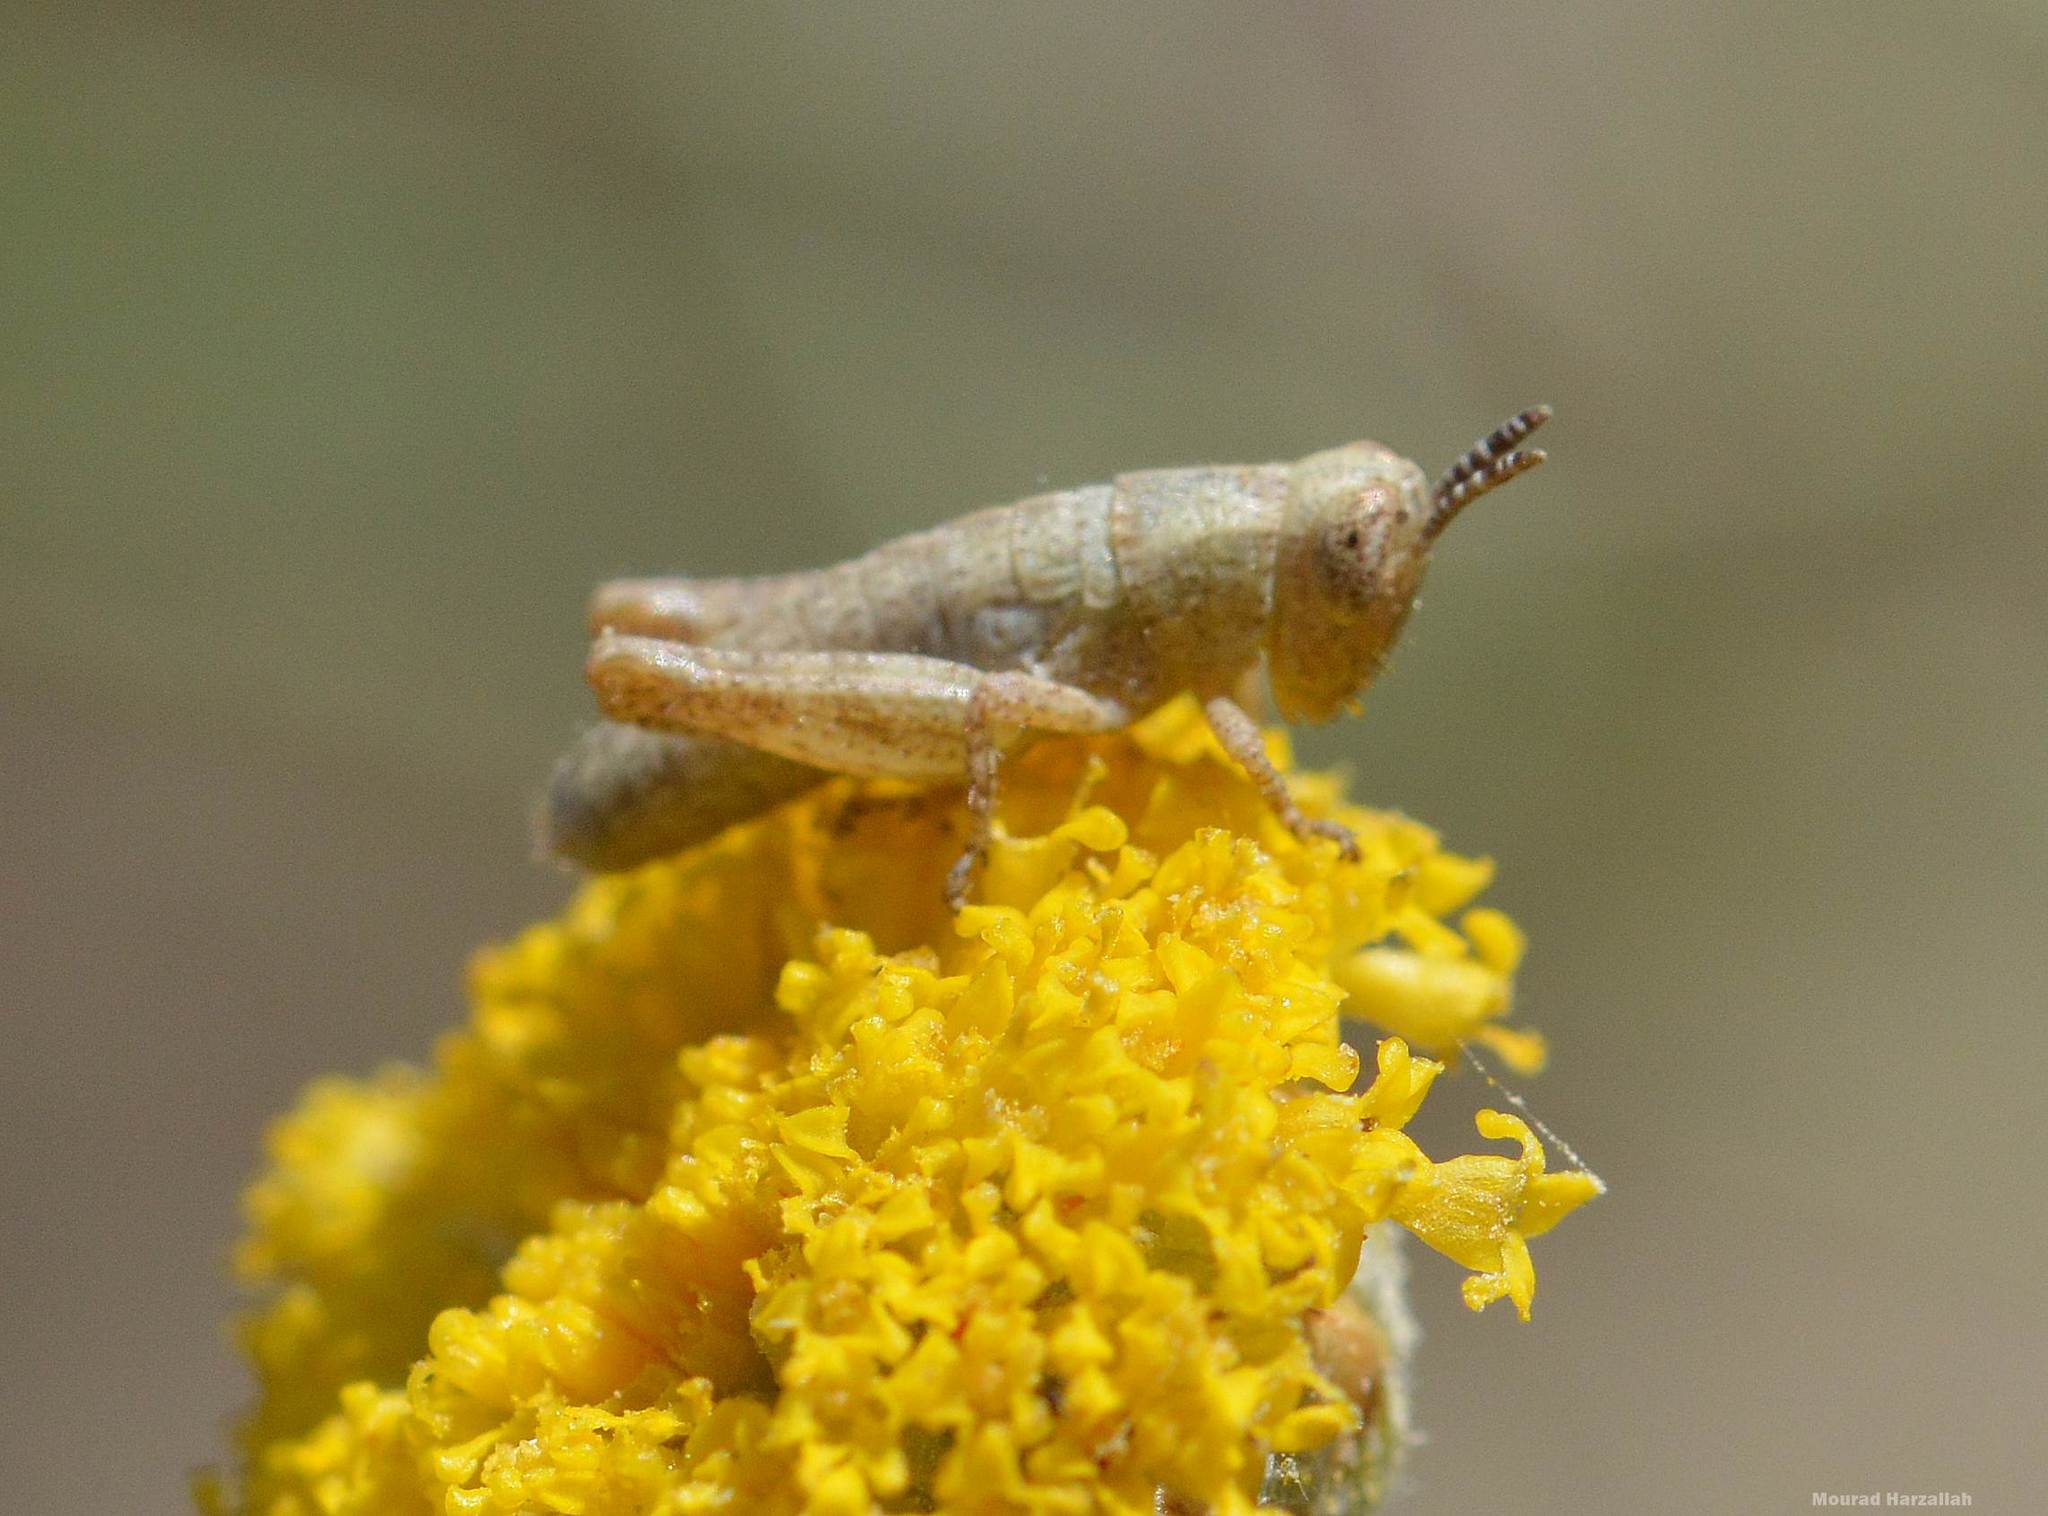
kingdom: Animalia
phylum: Arthropoda
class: Insecta
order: Orthoptera
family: Acrididae
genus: Pezotettix
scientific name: Pezotettix giornae
